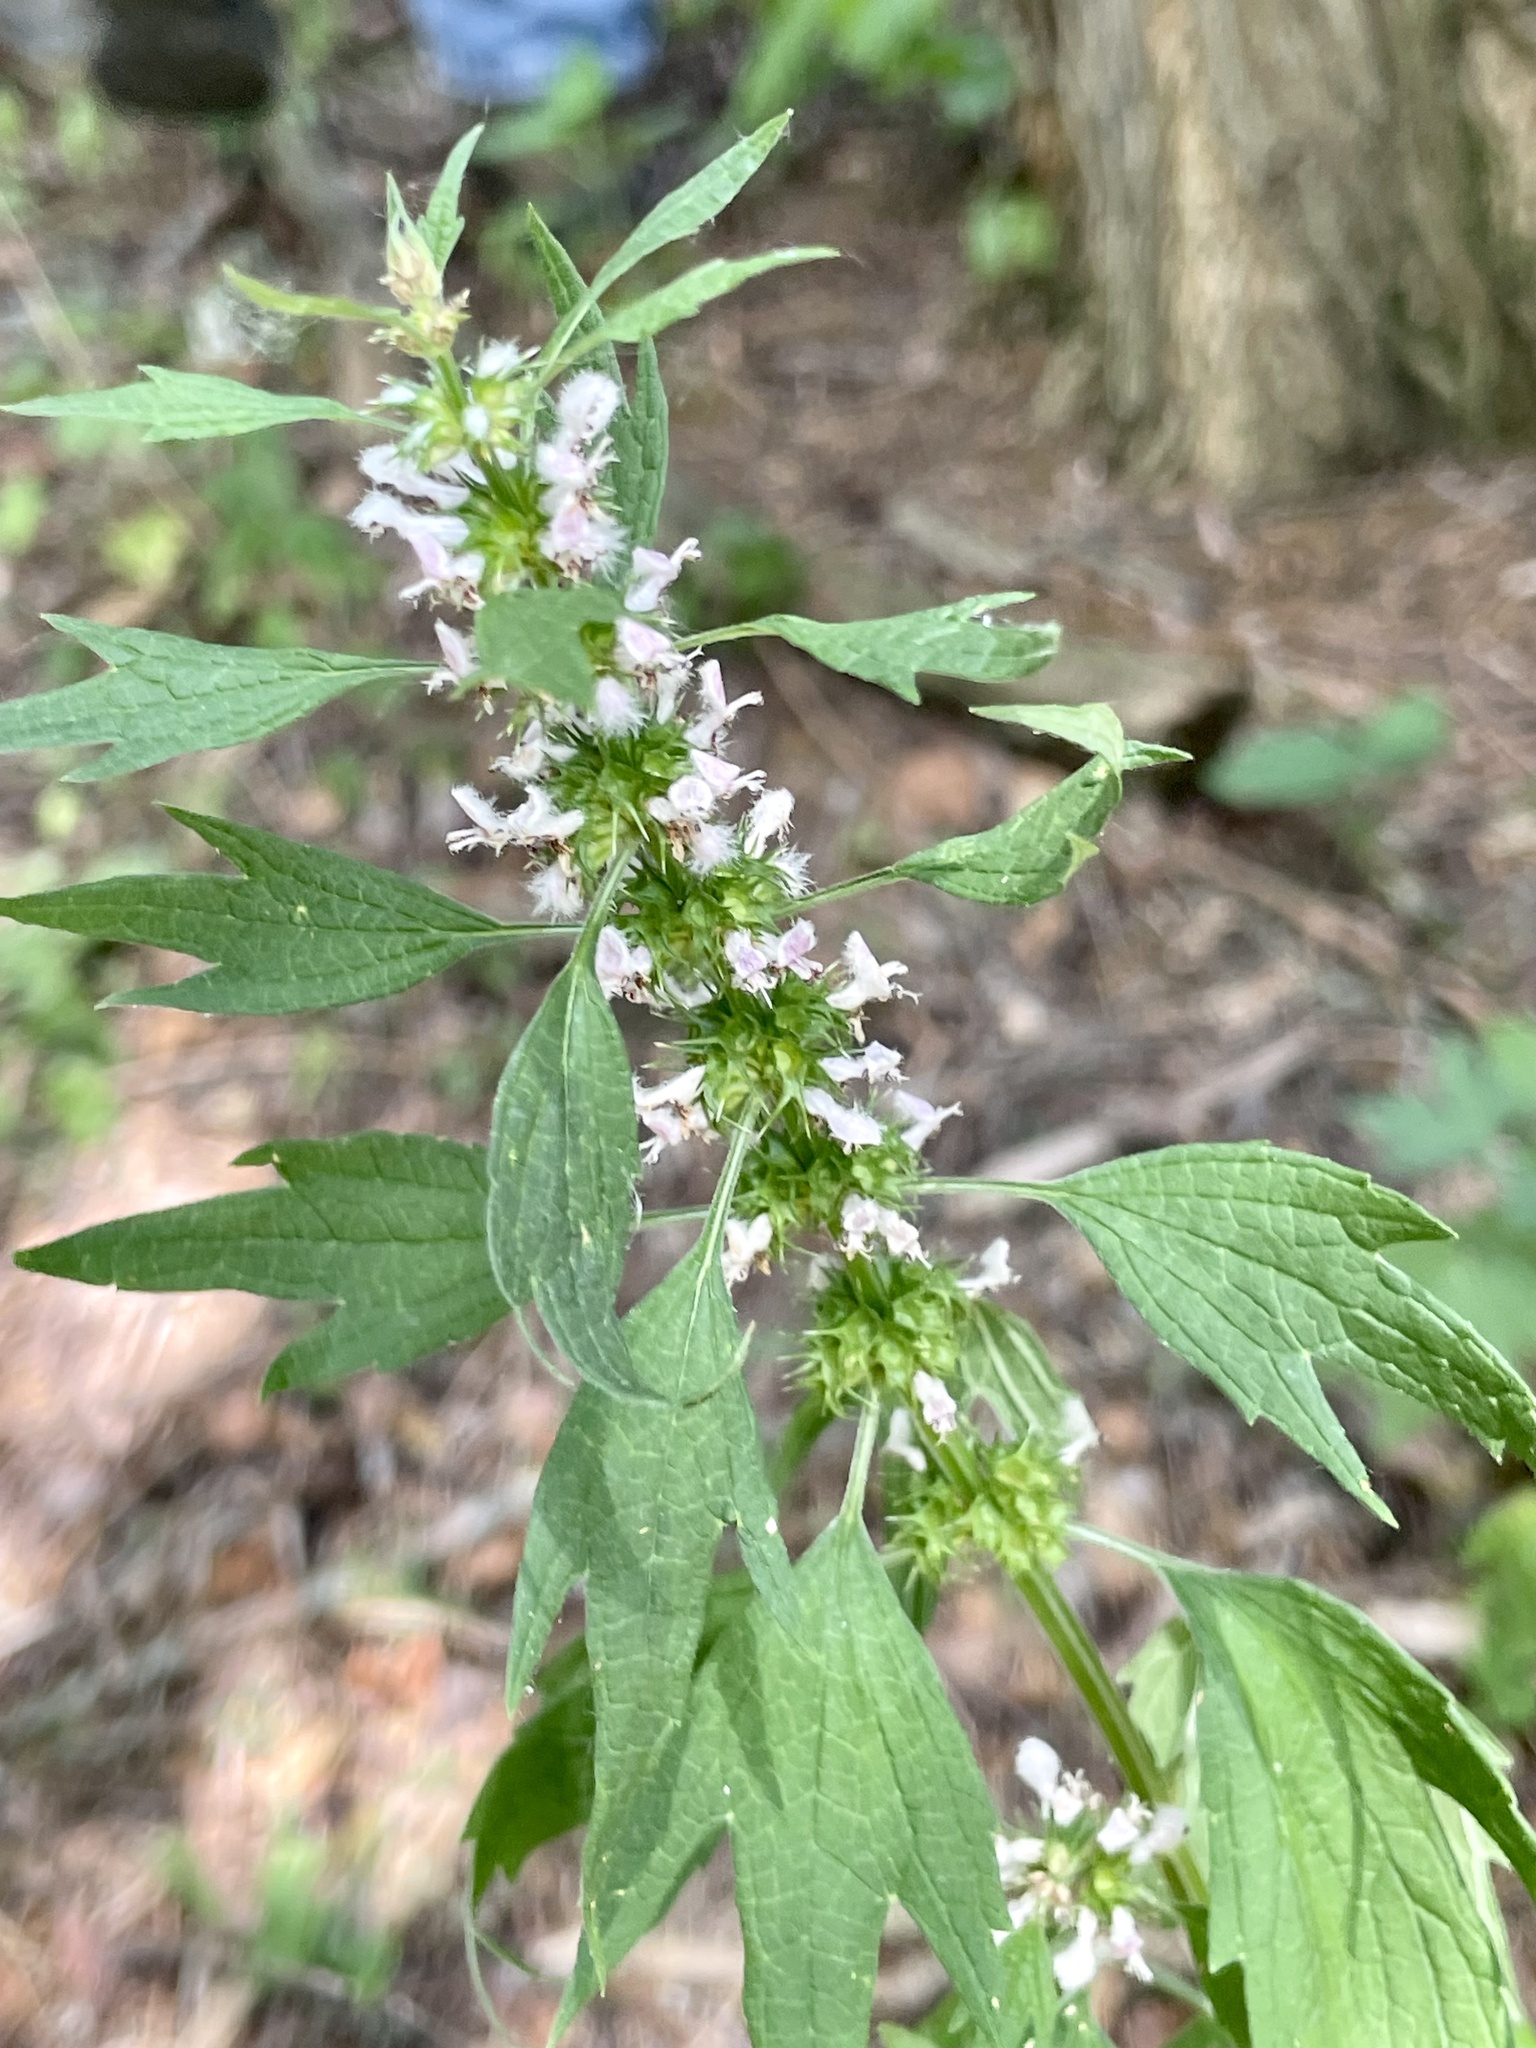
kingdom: Plantae
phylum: Tracheophyta
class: Magnoliopsida
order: Lamiales
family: Lamiaceae
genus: Leonurus
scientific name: Leonurus cardiaca
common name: Motherwort
